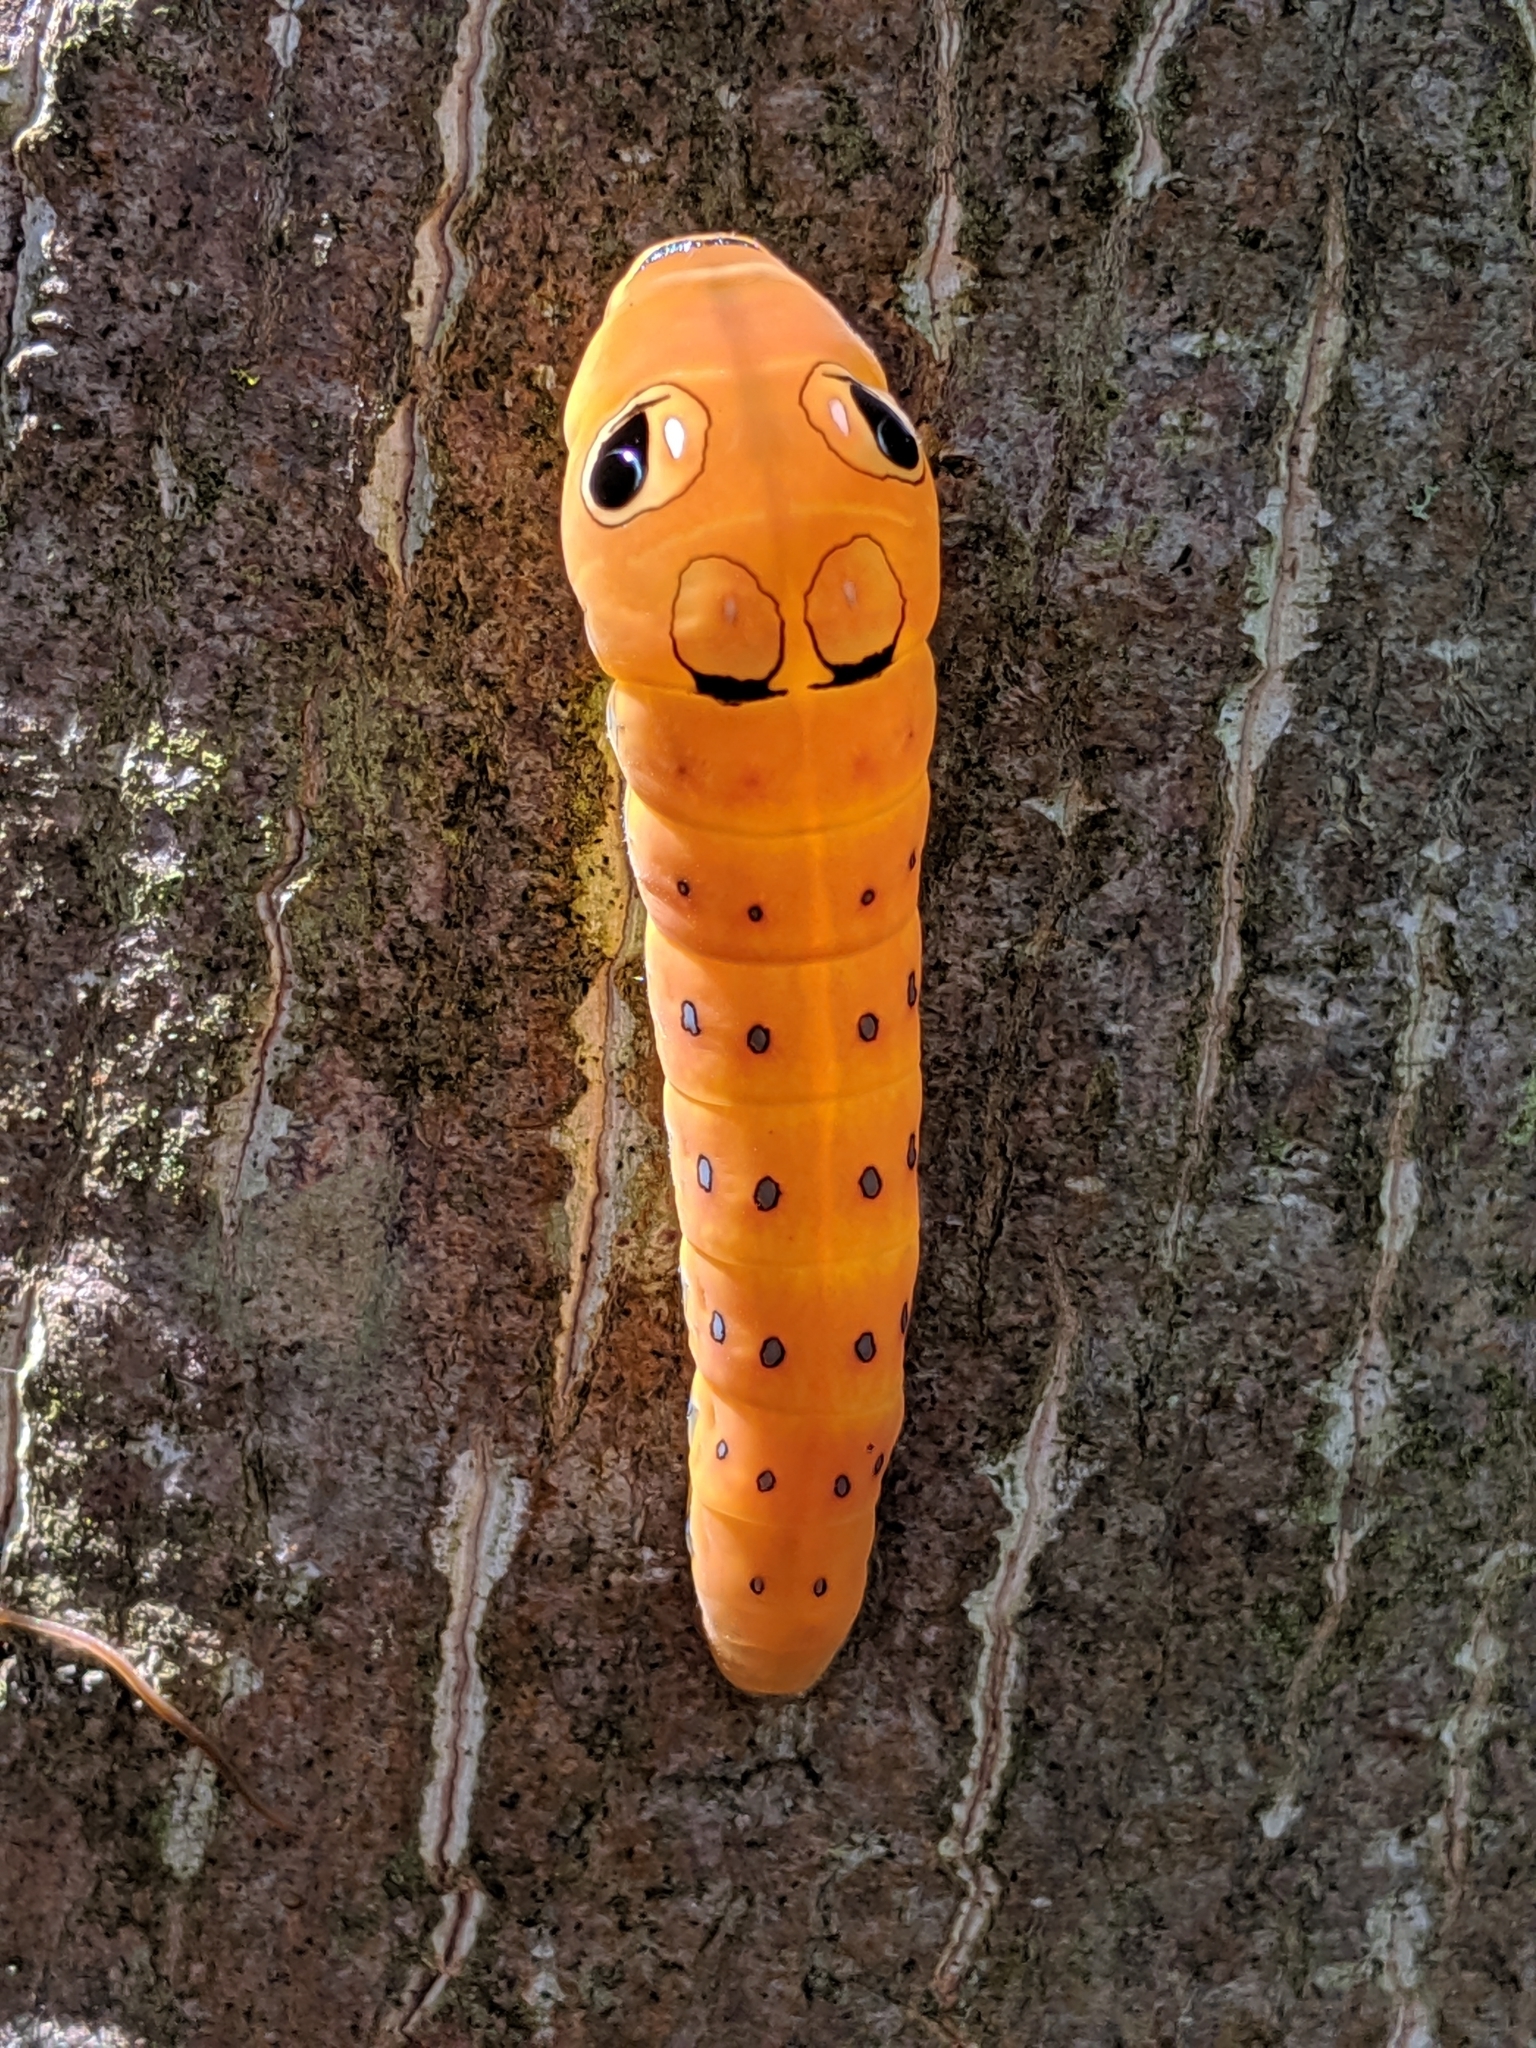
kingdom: Animalia
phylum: Arthropoda
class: Insecta
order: Lepidoptera
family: Papilionidae
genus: Papilio
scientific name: Papilio troilus
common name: Spicebush swallowtail
